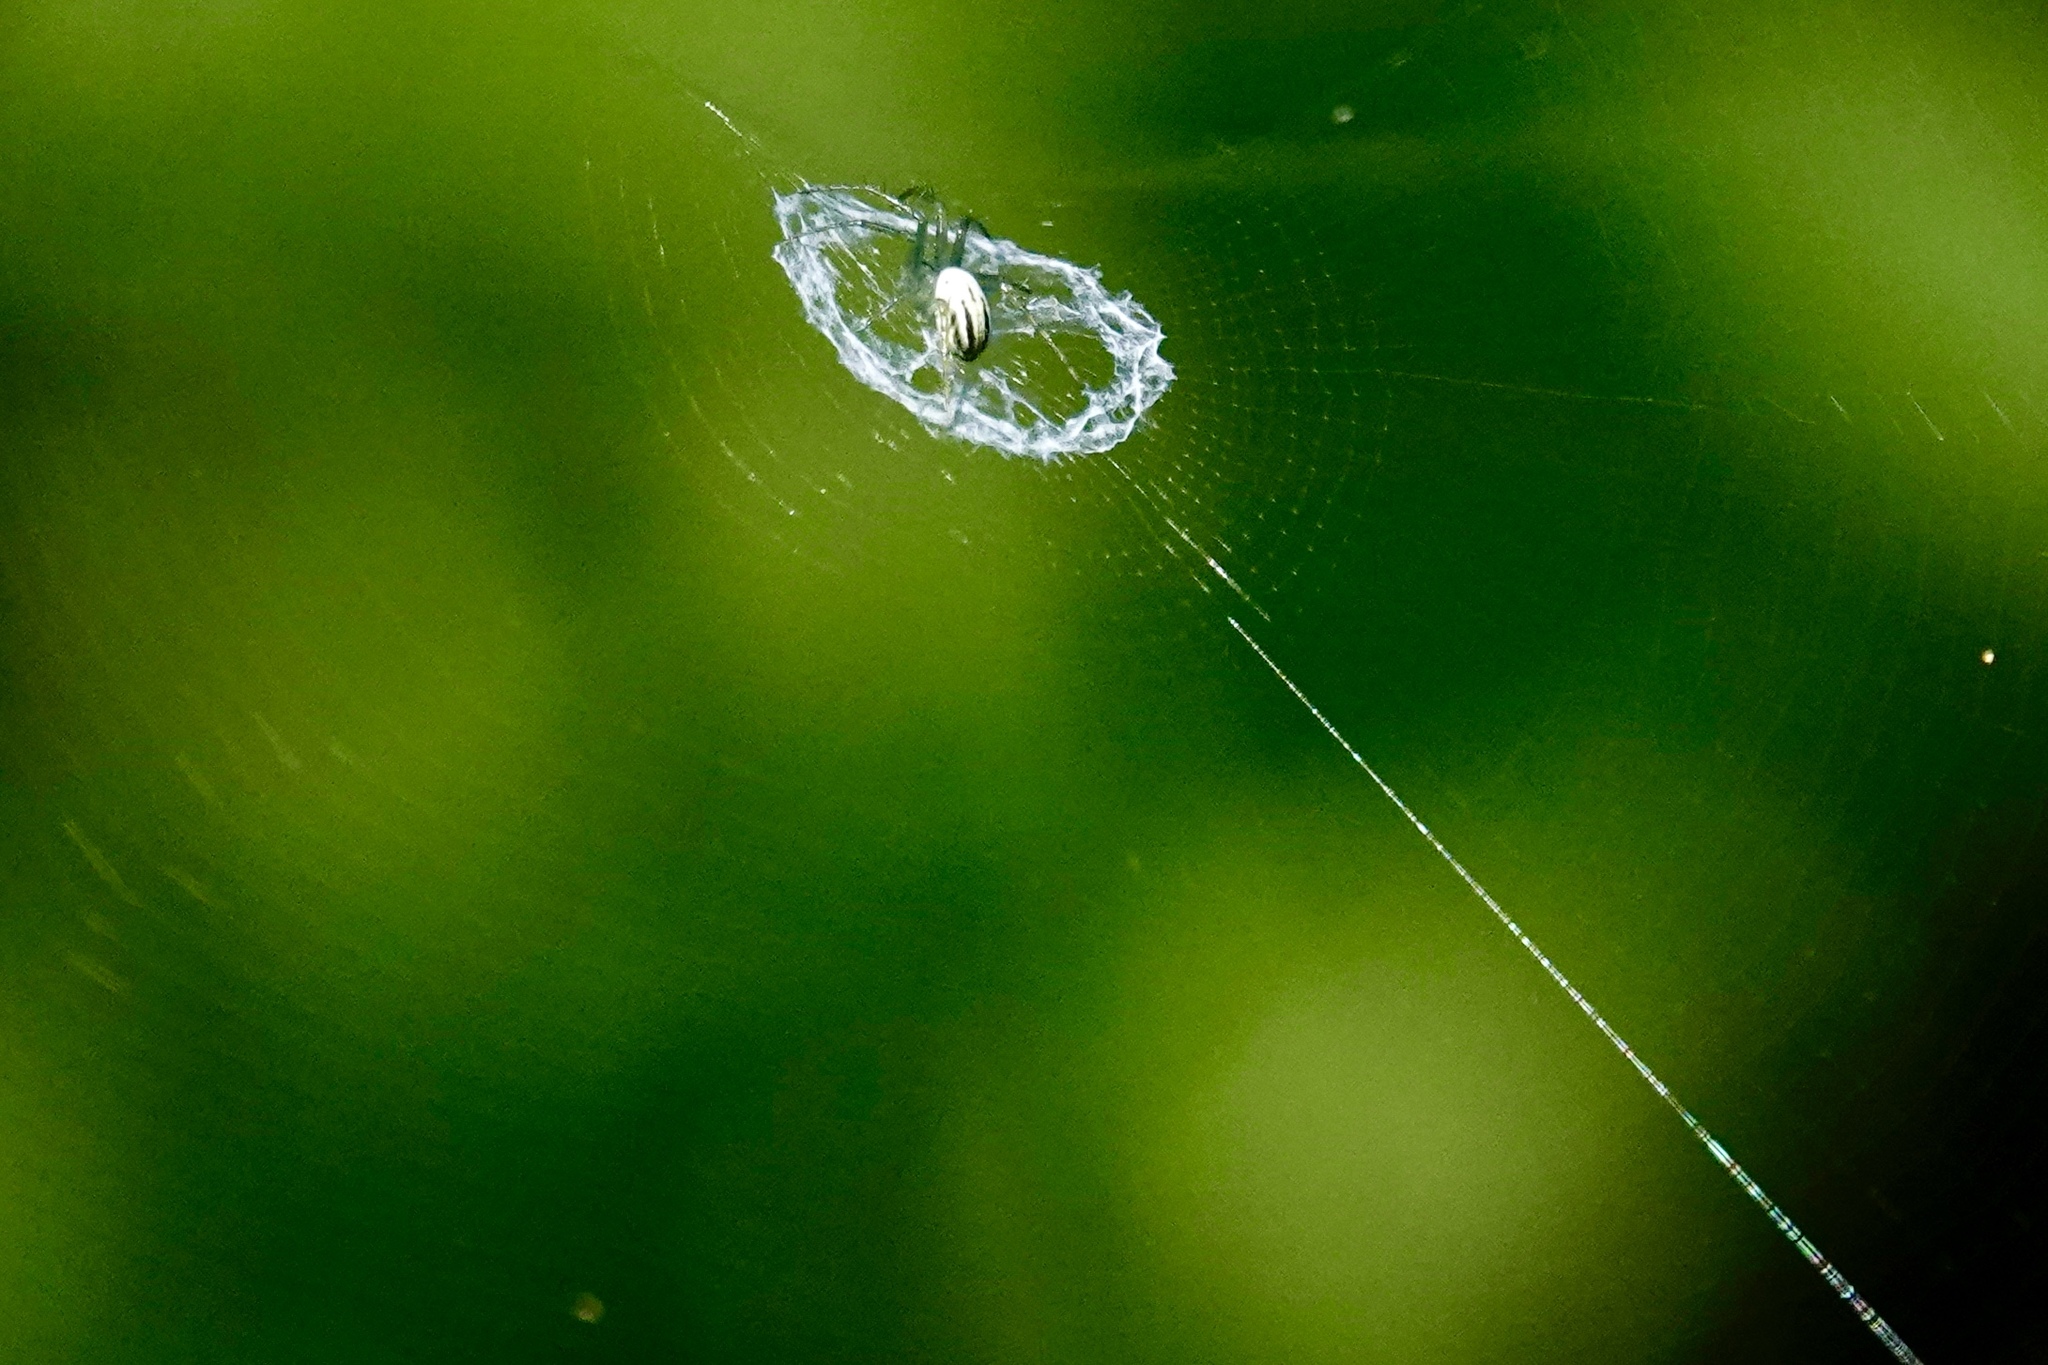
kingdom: Animalia
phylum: Arthropoda
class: Arachnida
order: Araneae
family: Araneidae
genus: Mangora
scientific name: Mangora gibberosa
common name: Lined orbweaver
